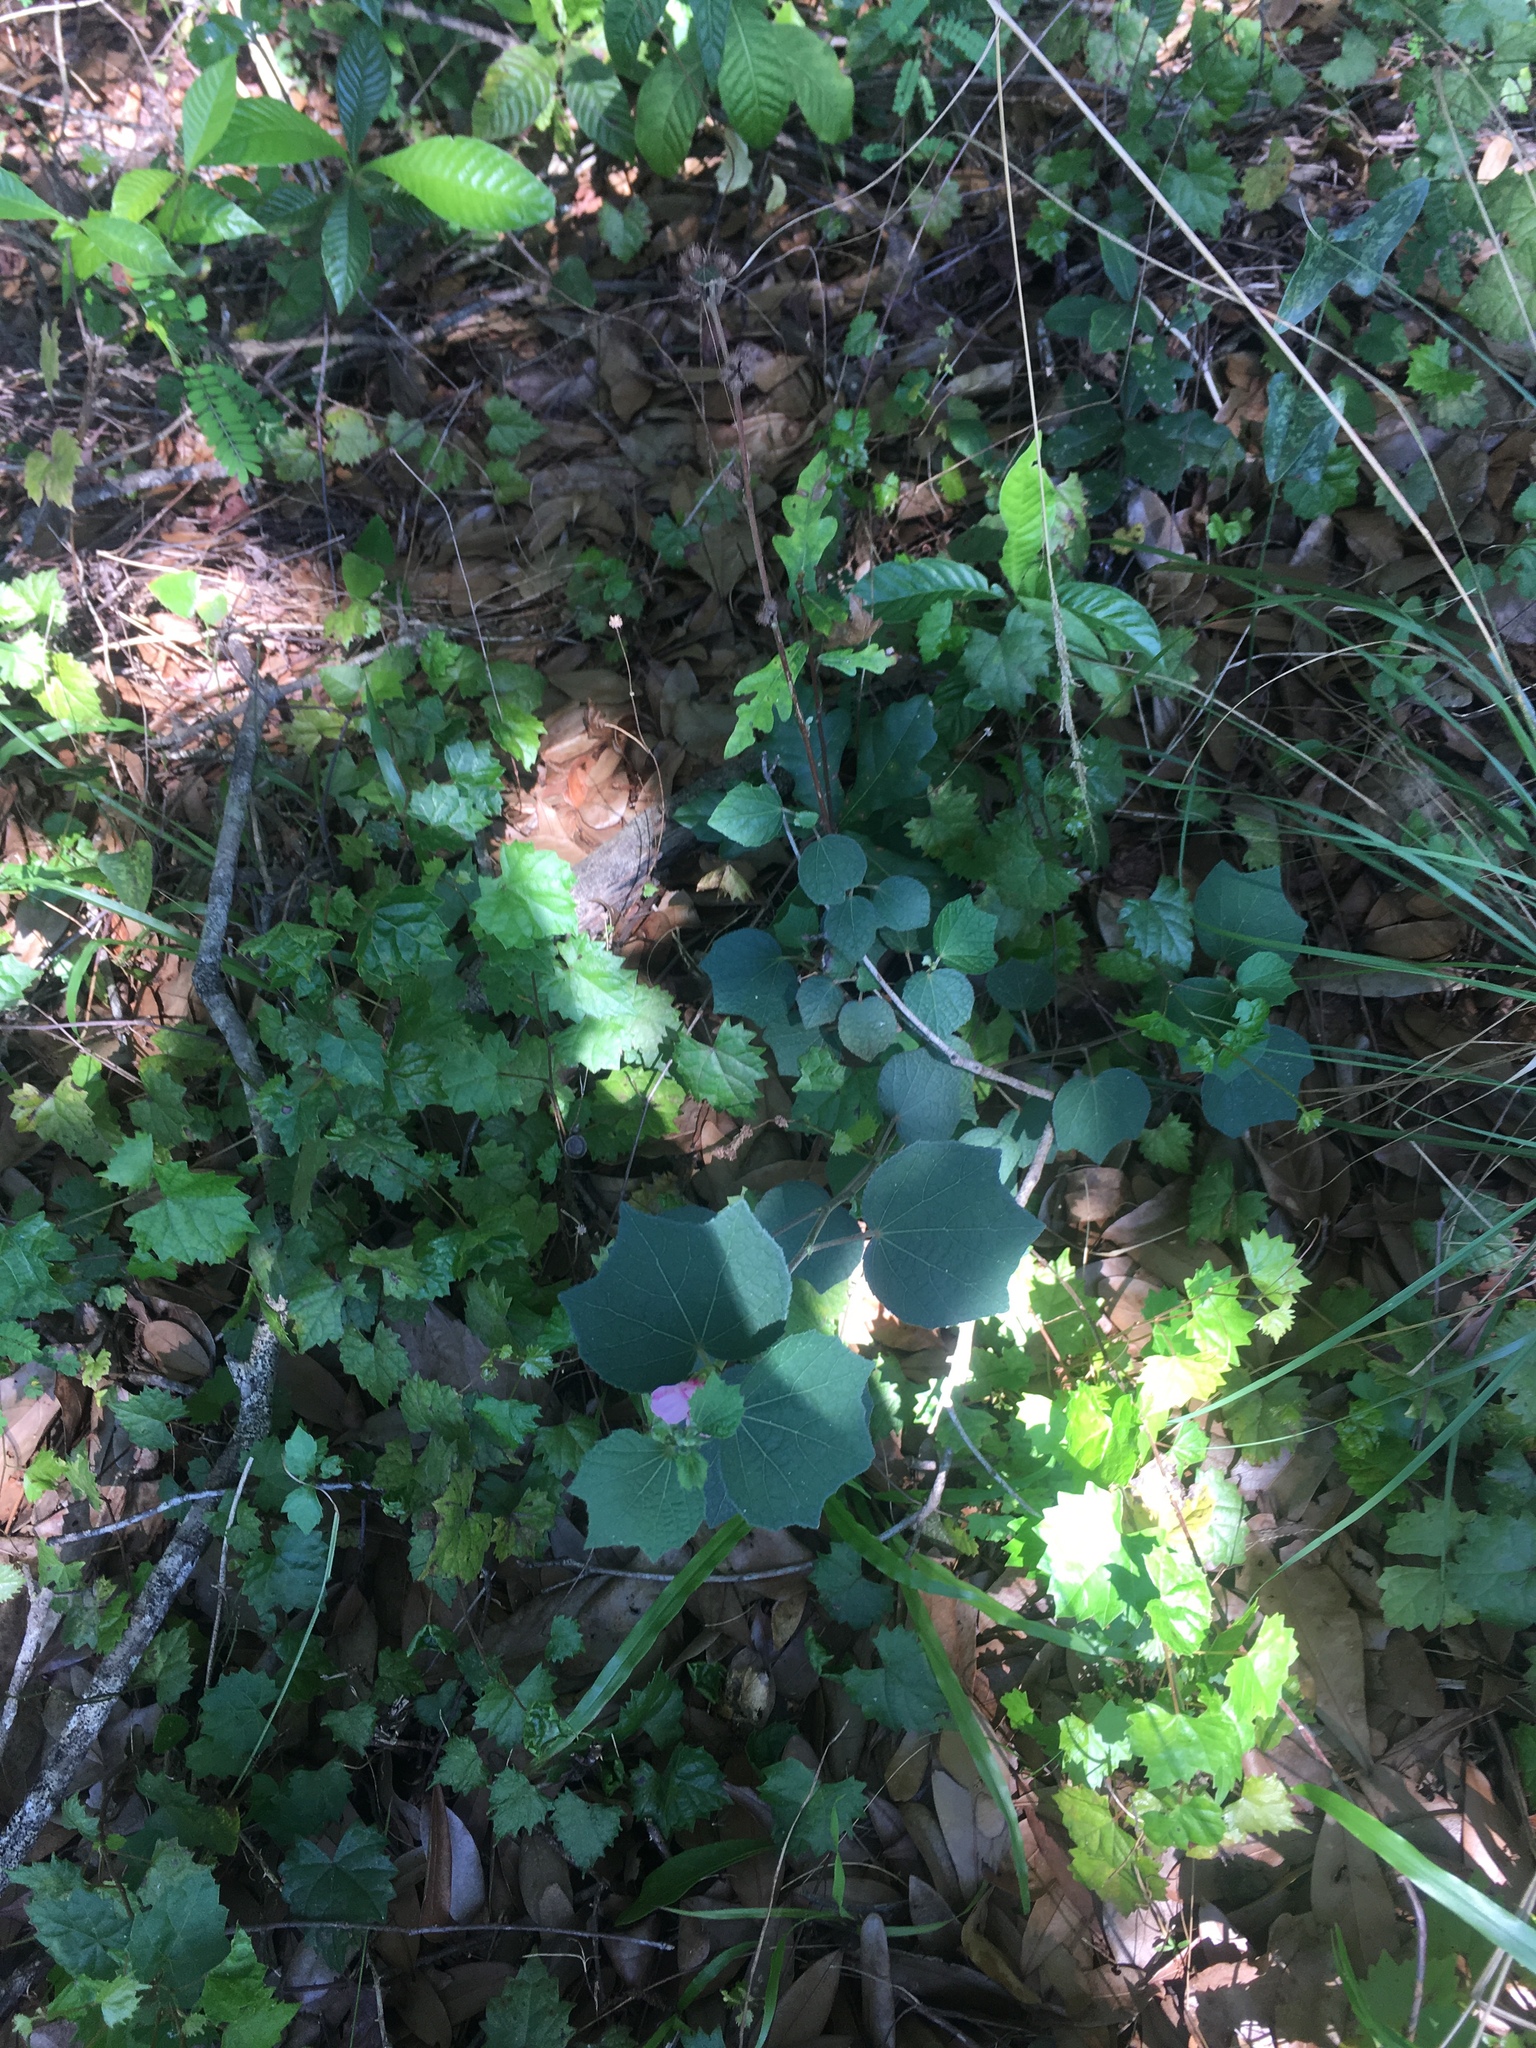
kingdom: Plantae
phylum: Tracheophyta
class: Magnoliopsida
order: Malvales
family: Malvaceae
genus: Urena
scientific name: Urena lobata
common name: Caesarweed
